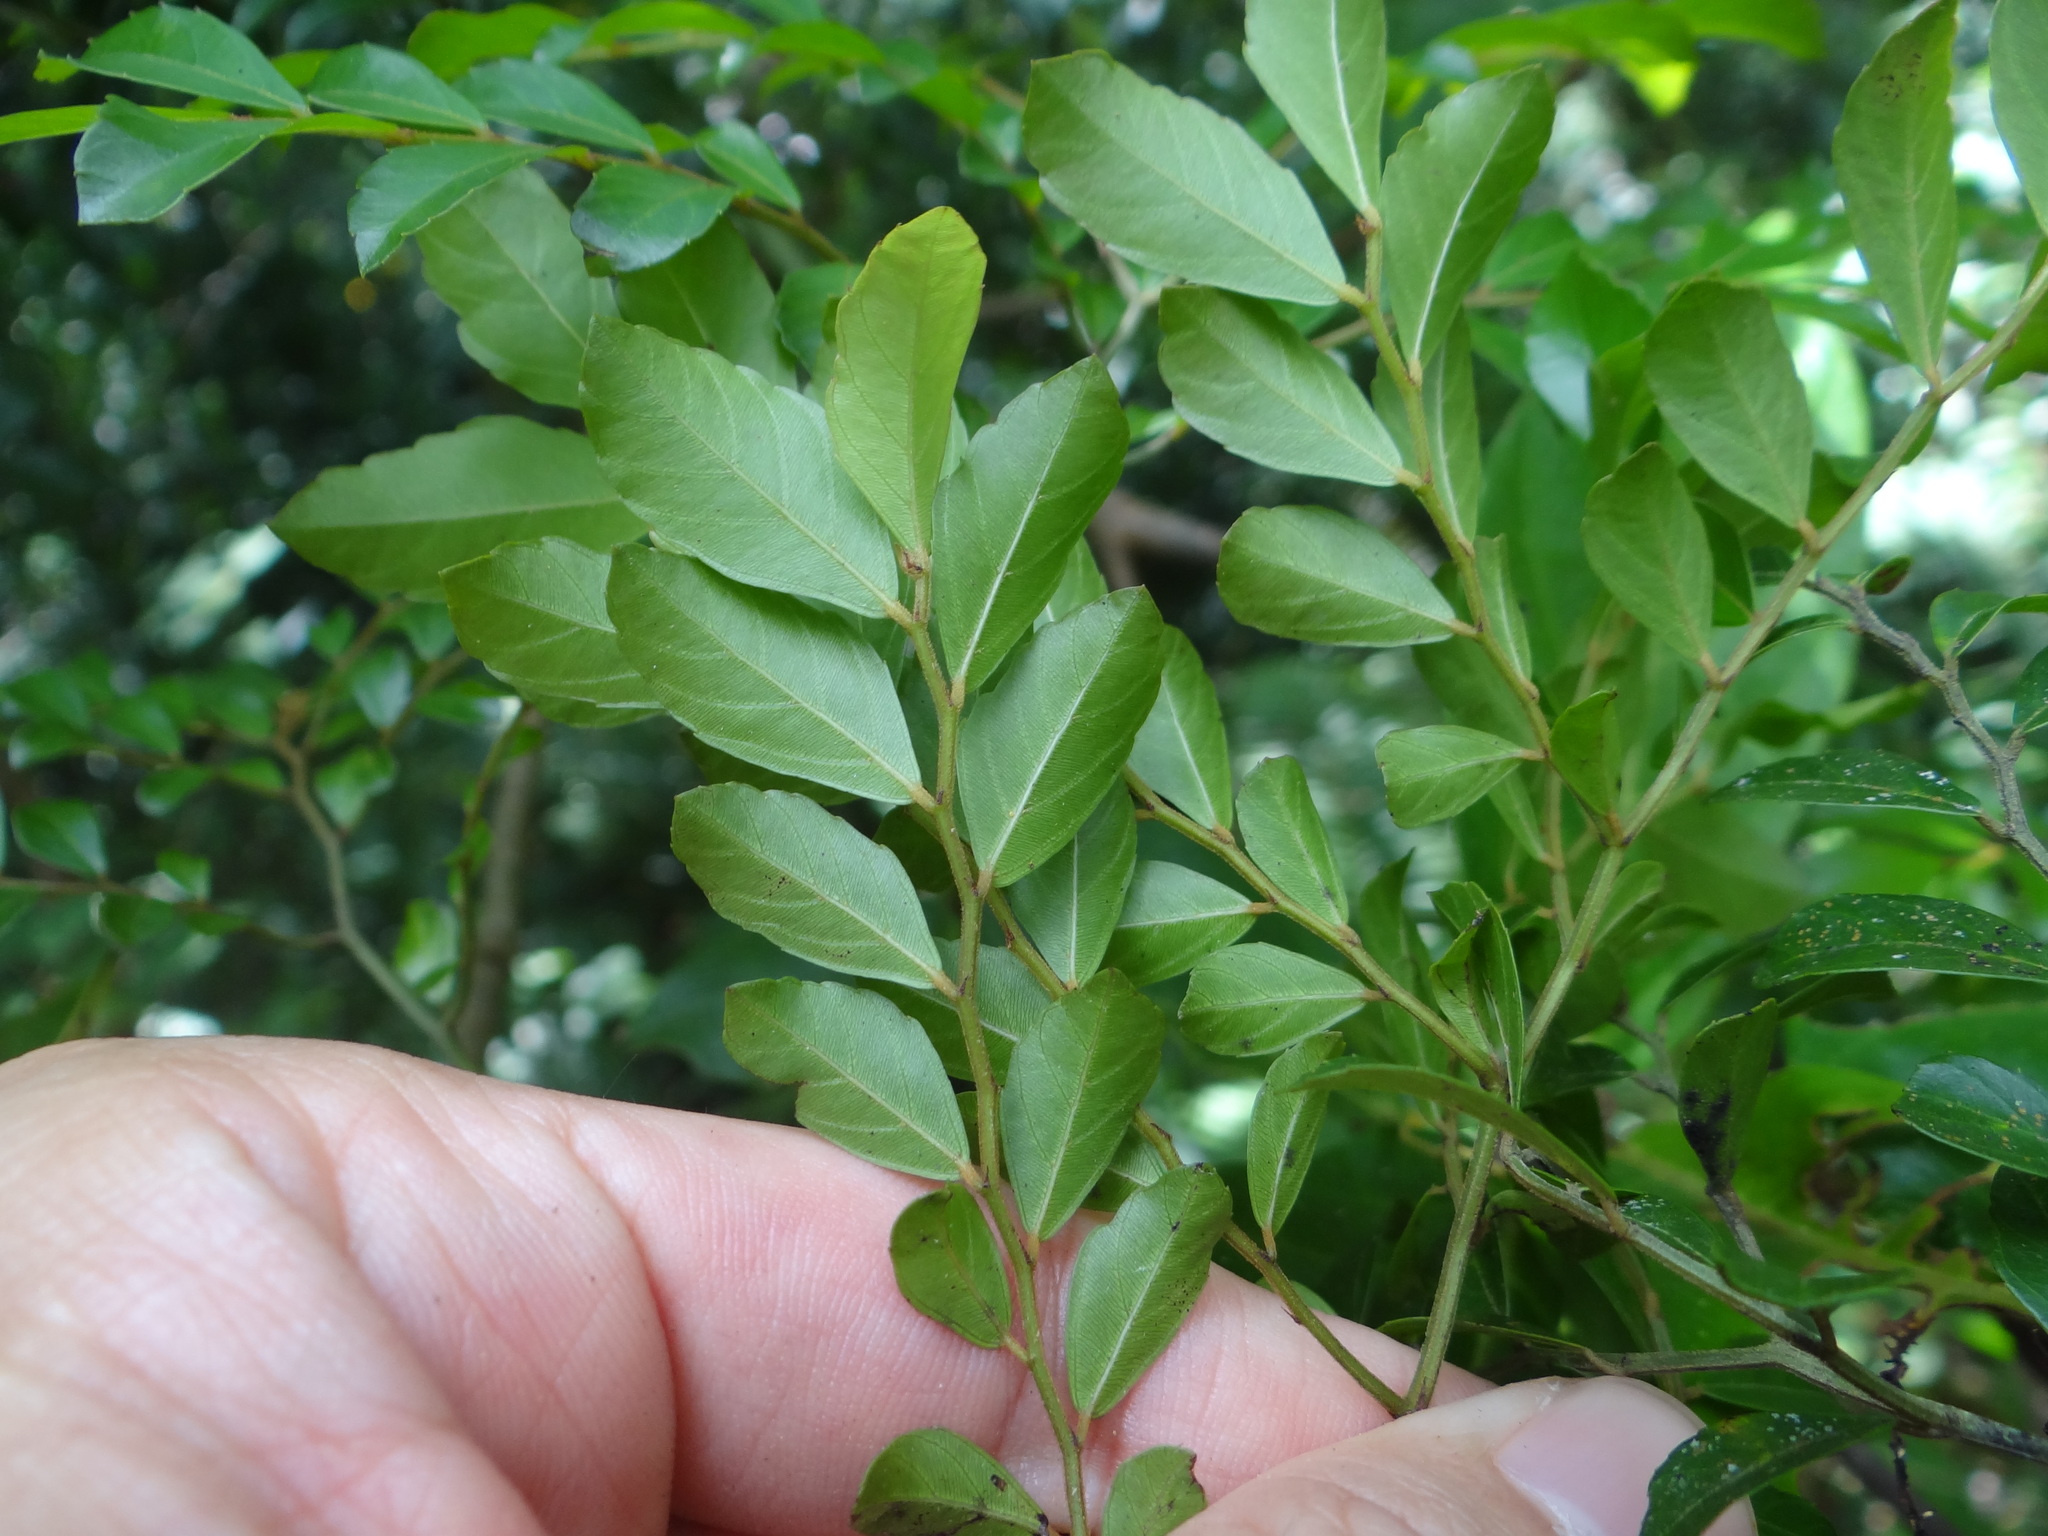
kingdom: Plantae
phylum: Tracheophyta
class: Magnoliopsida
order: Rosales
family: Rhamnaceae
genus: Ventilago
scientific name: Ventilago elegans
